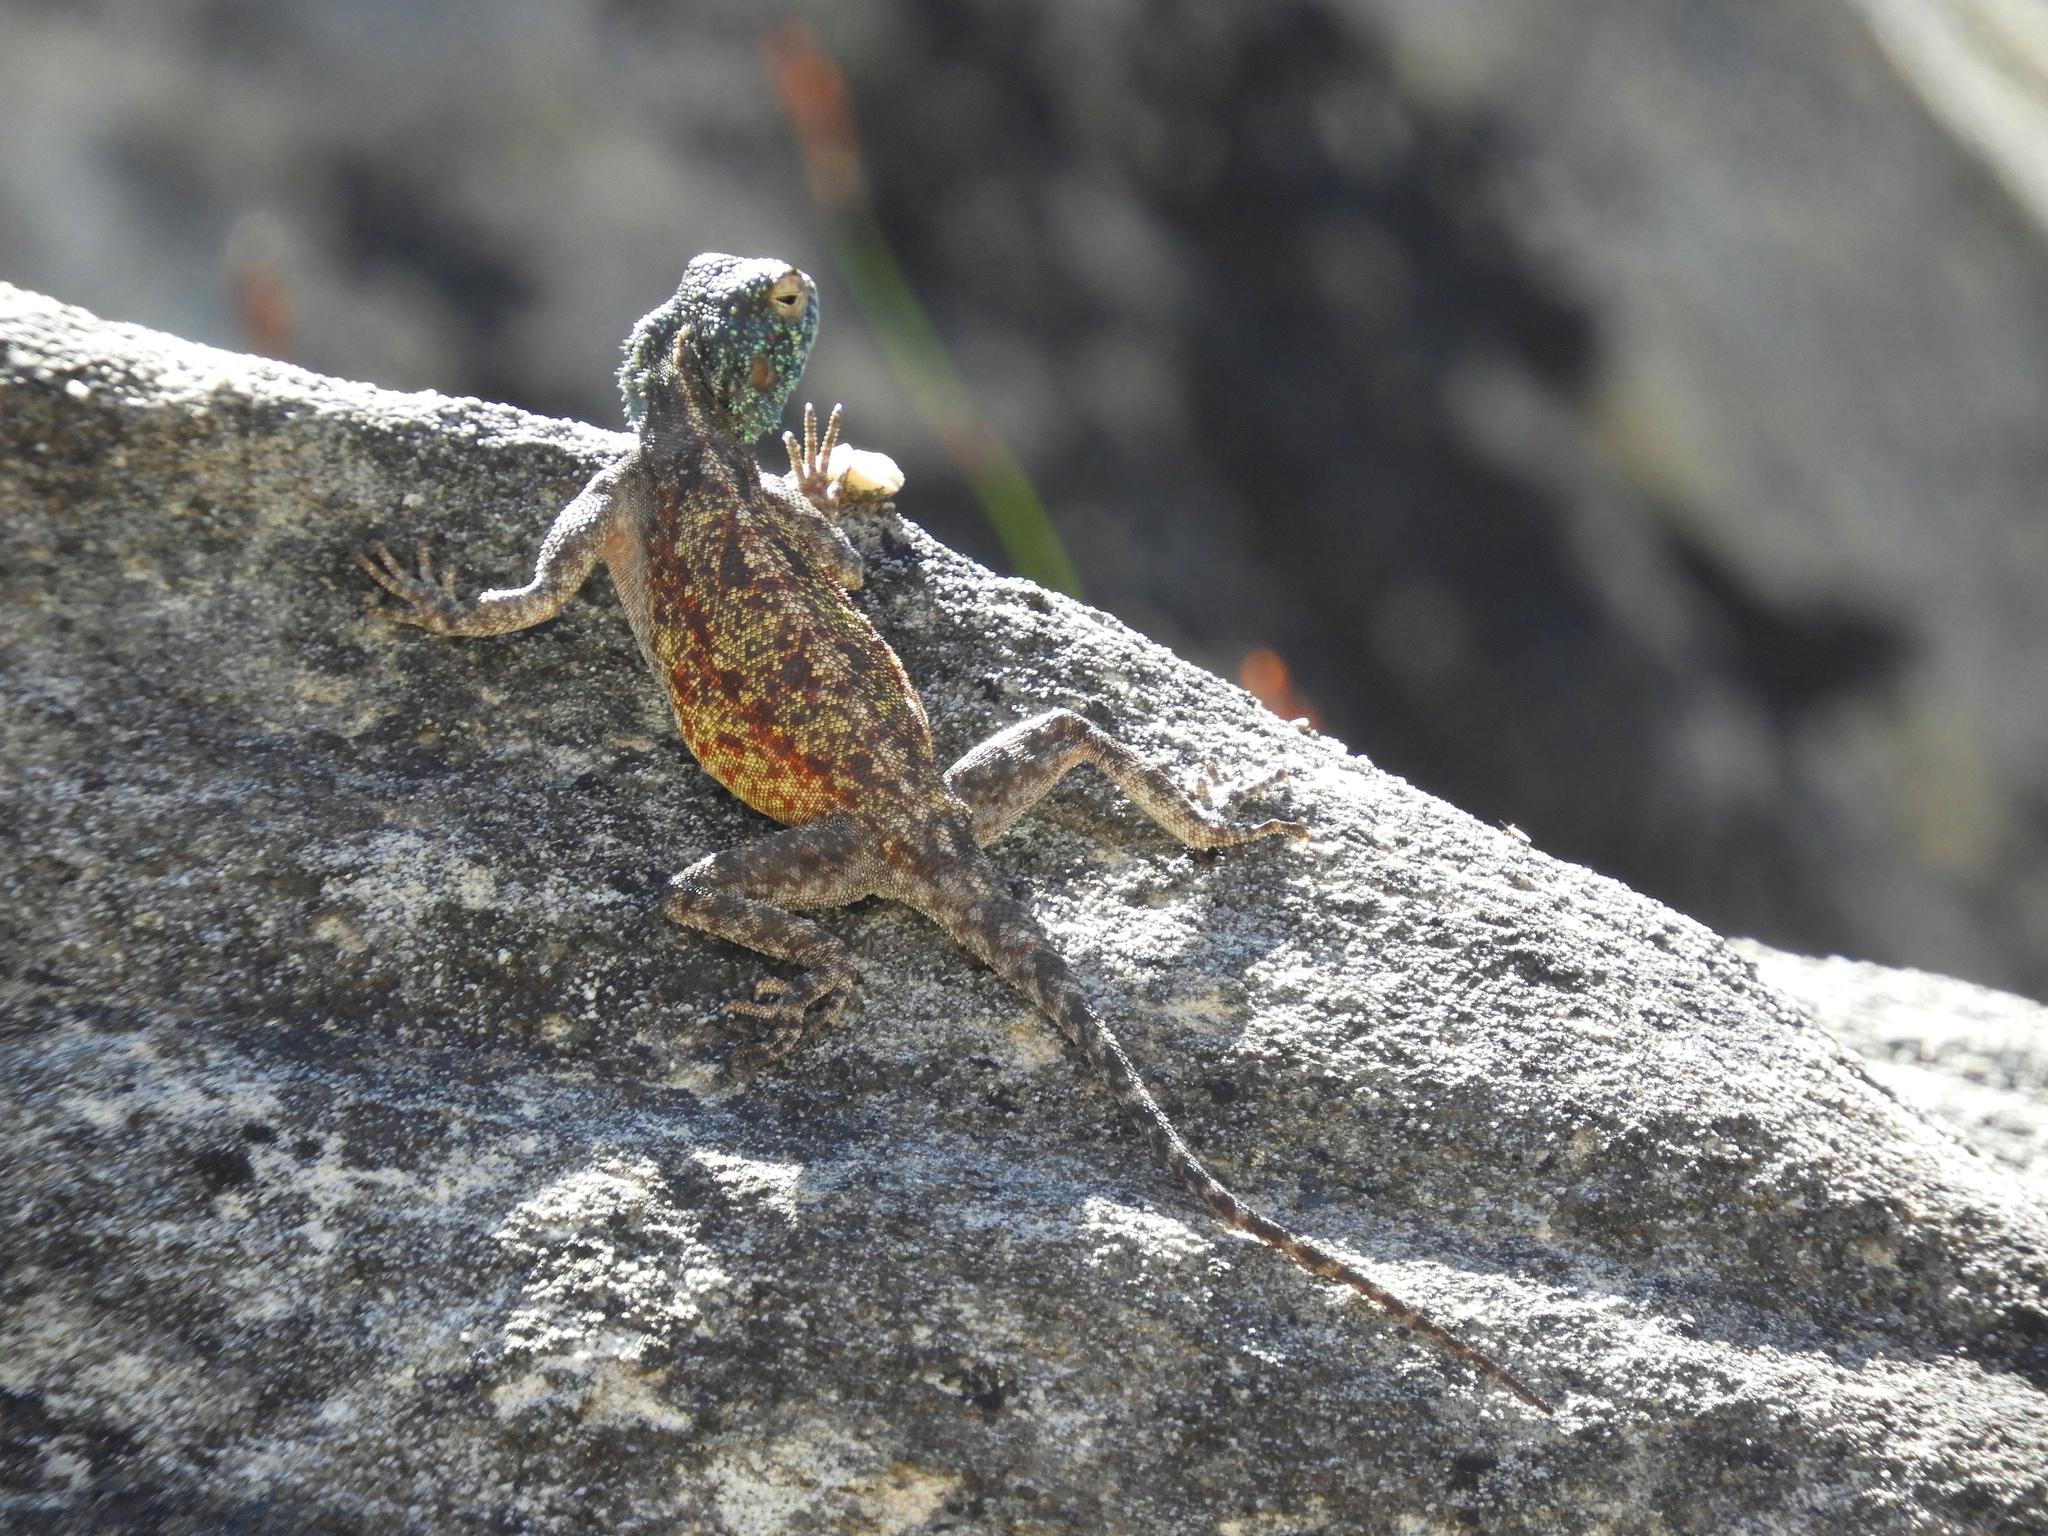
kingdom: Animalia
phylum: Chordata
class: Squamata
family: Agamidae
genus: Agama
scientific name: Agama atra
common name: Southern african rock agama
